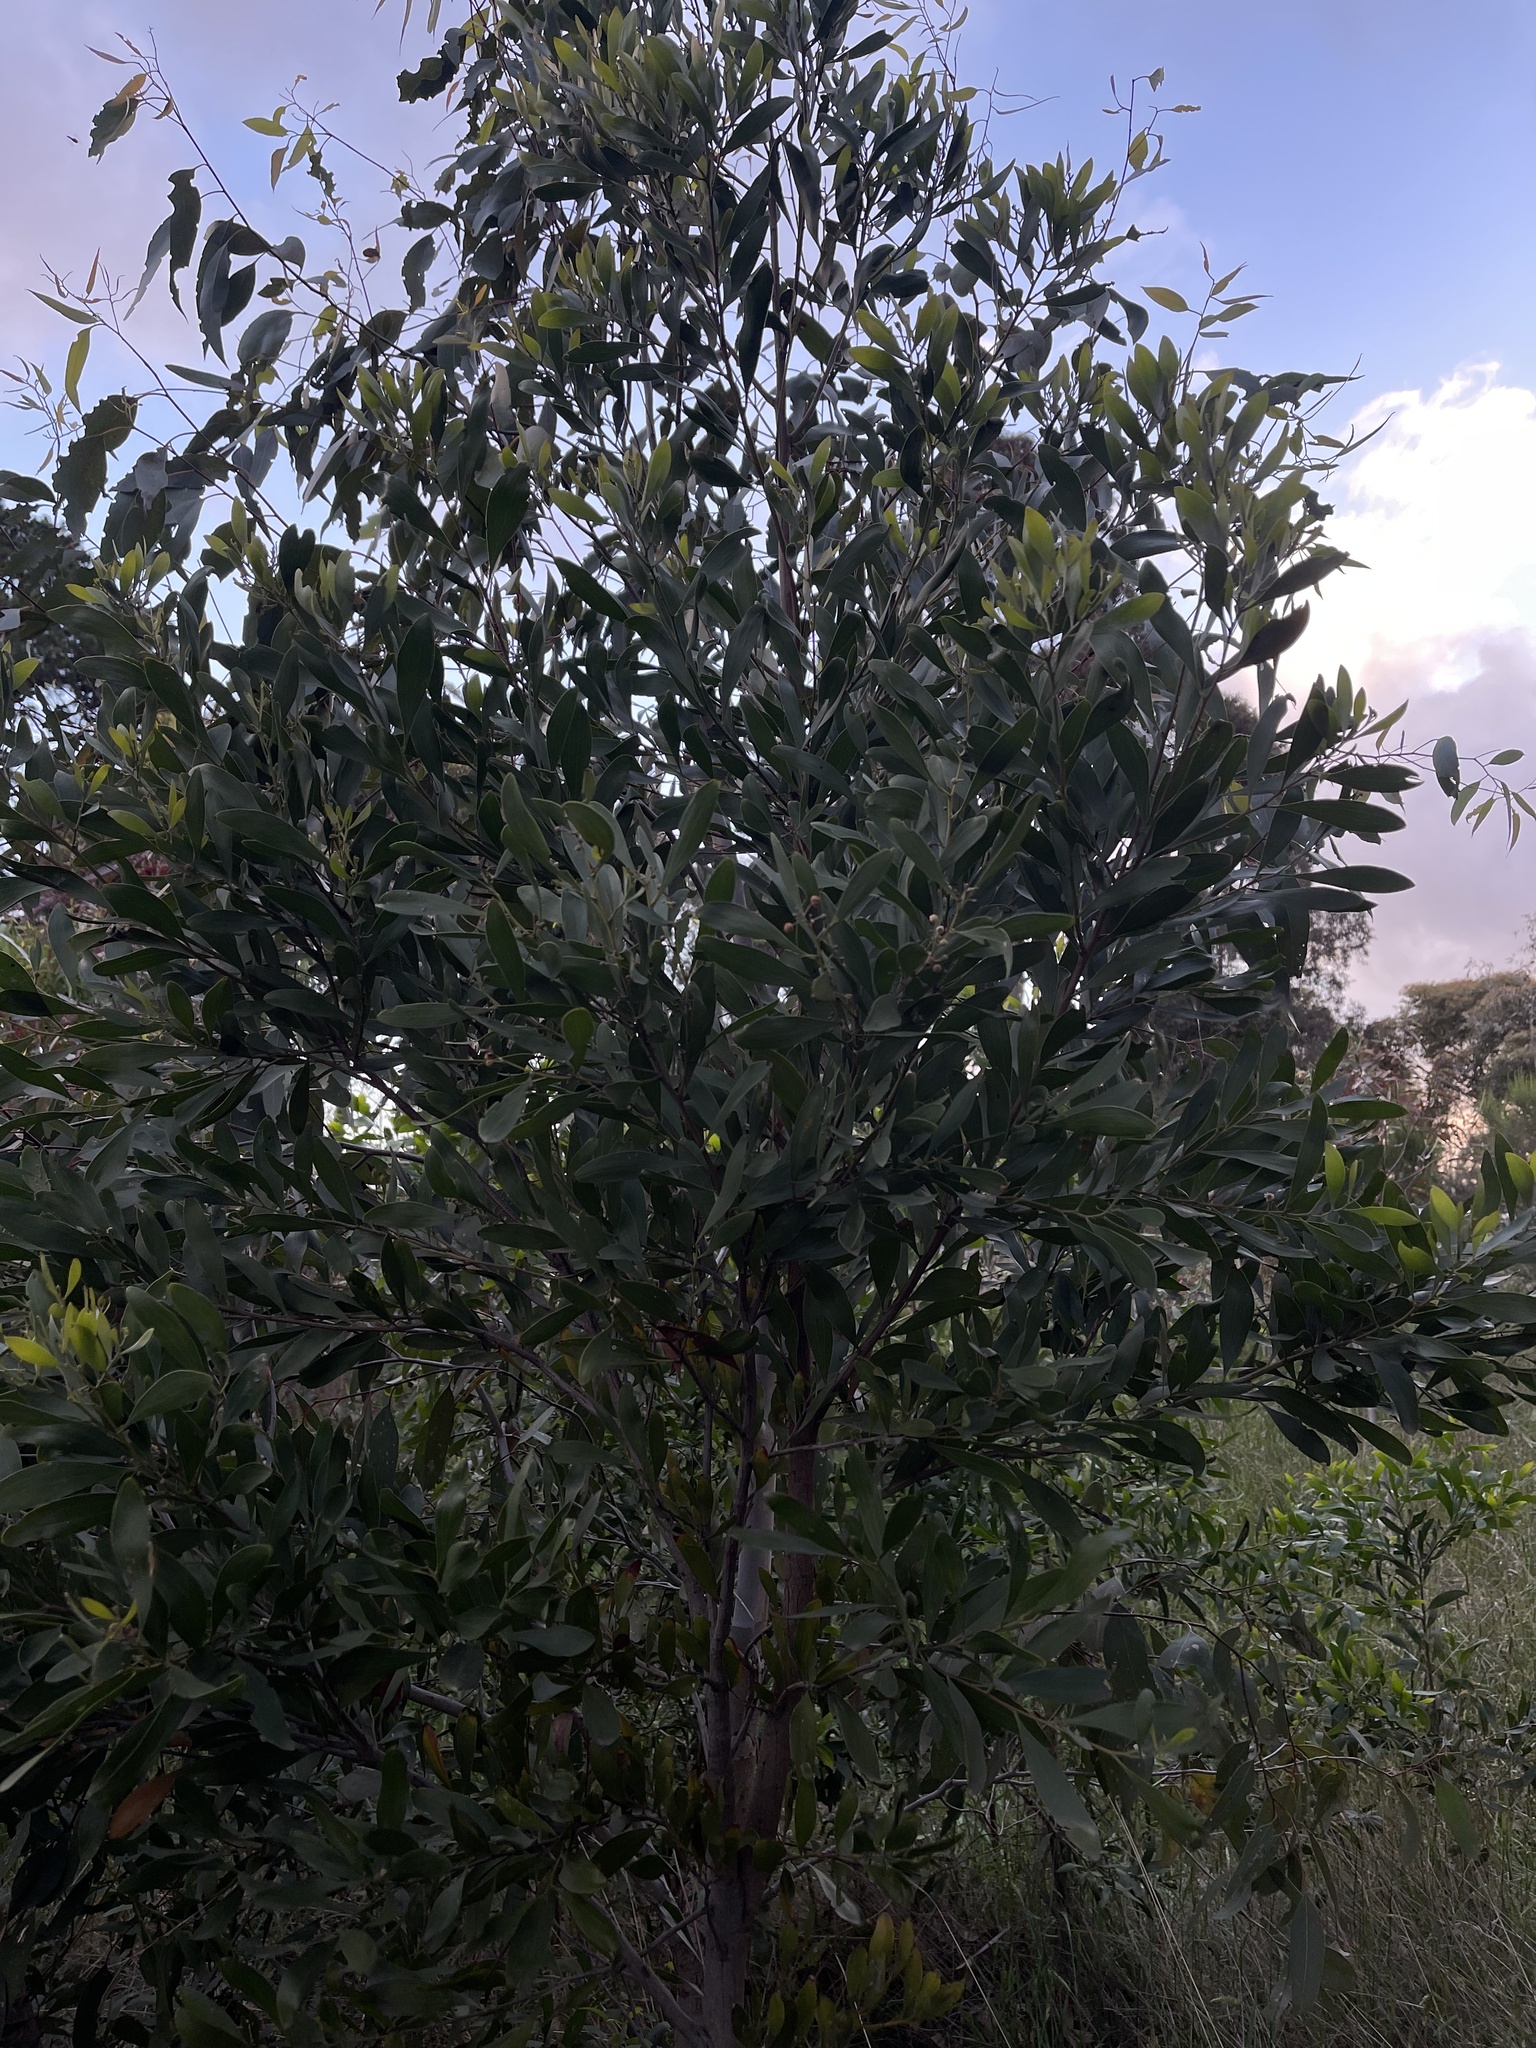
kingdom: Plantae
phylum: Tracheophyta
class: Magnoliopsida
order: Fabales
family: Fabaceae
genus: Acacia
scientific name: Acacia melanoxylon
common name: Blackwood
